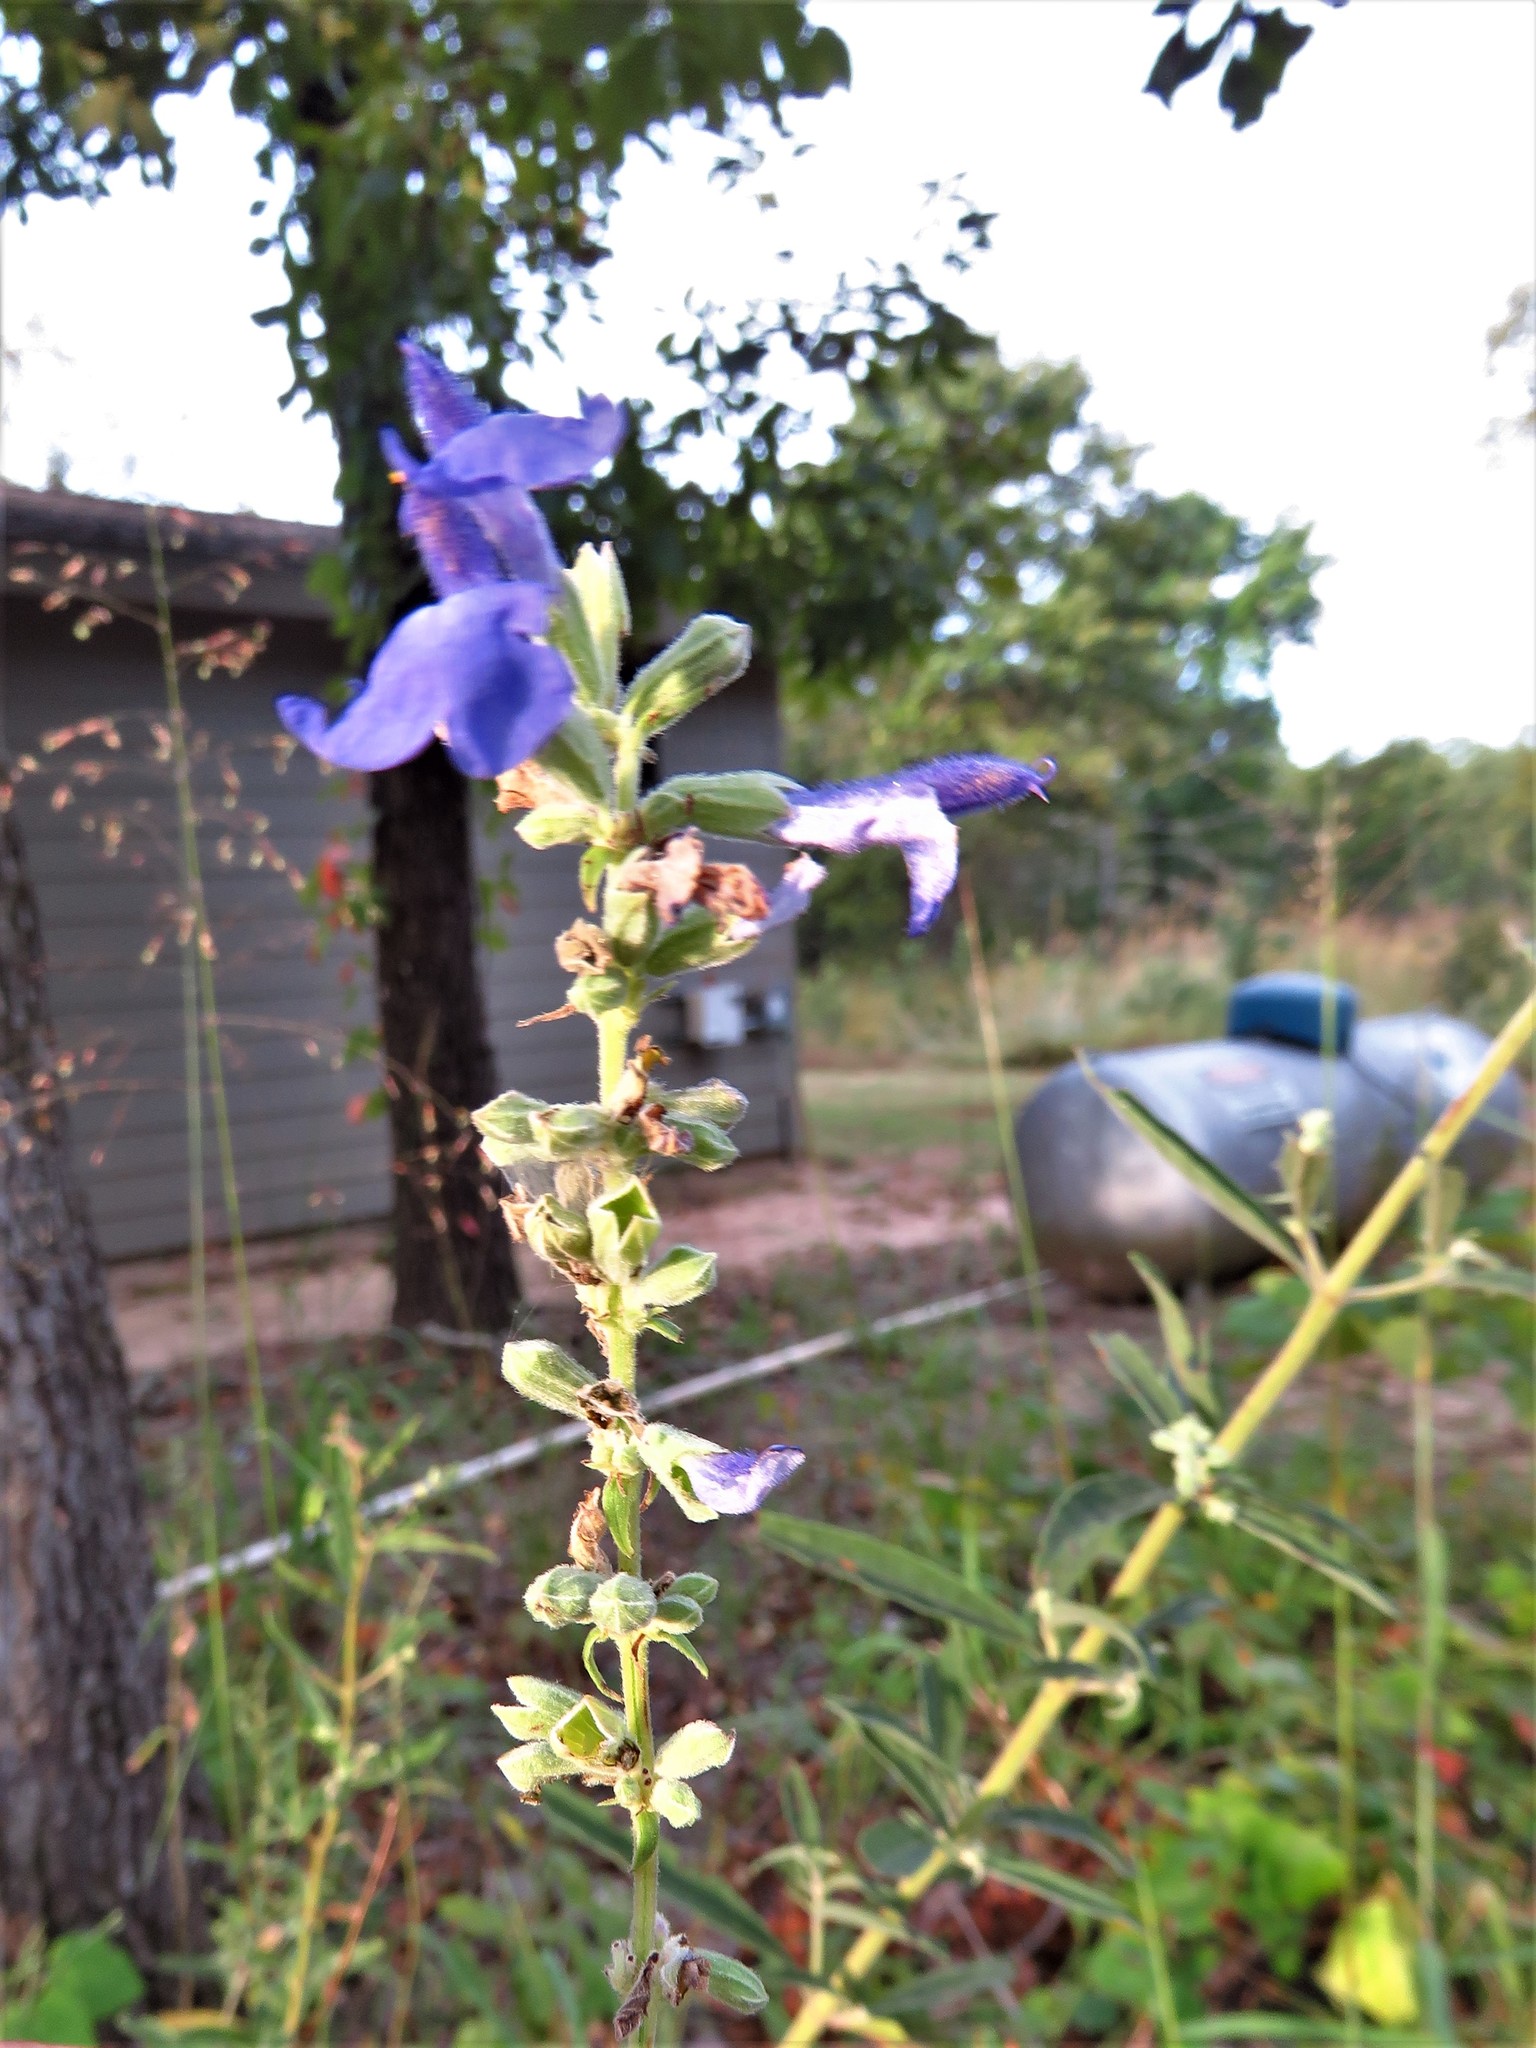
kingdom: Plantae
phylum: Tracheophyta
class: Magnoliopsida
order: Lamiales
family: Lamiaceae
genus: Salvia
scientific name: Salvia azurea
